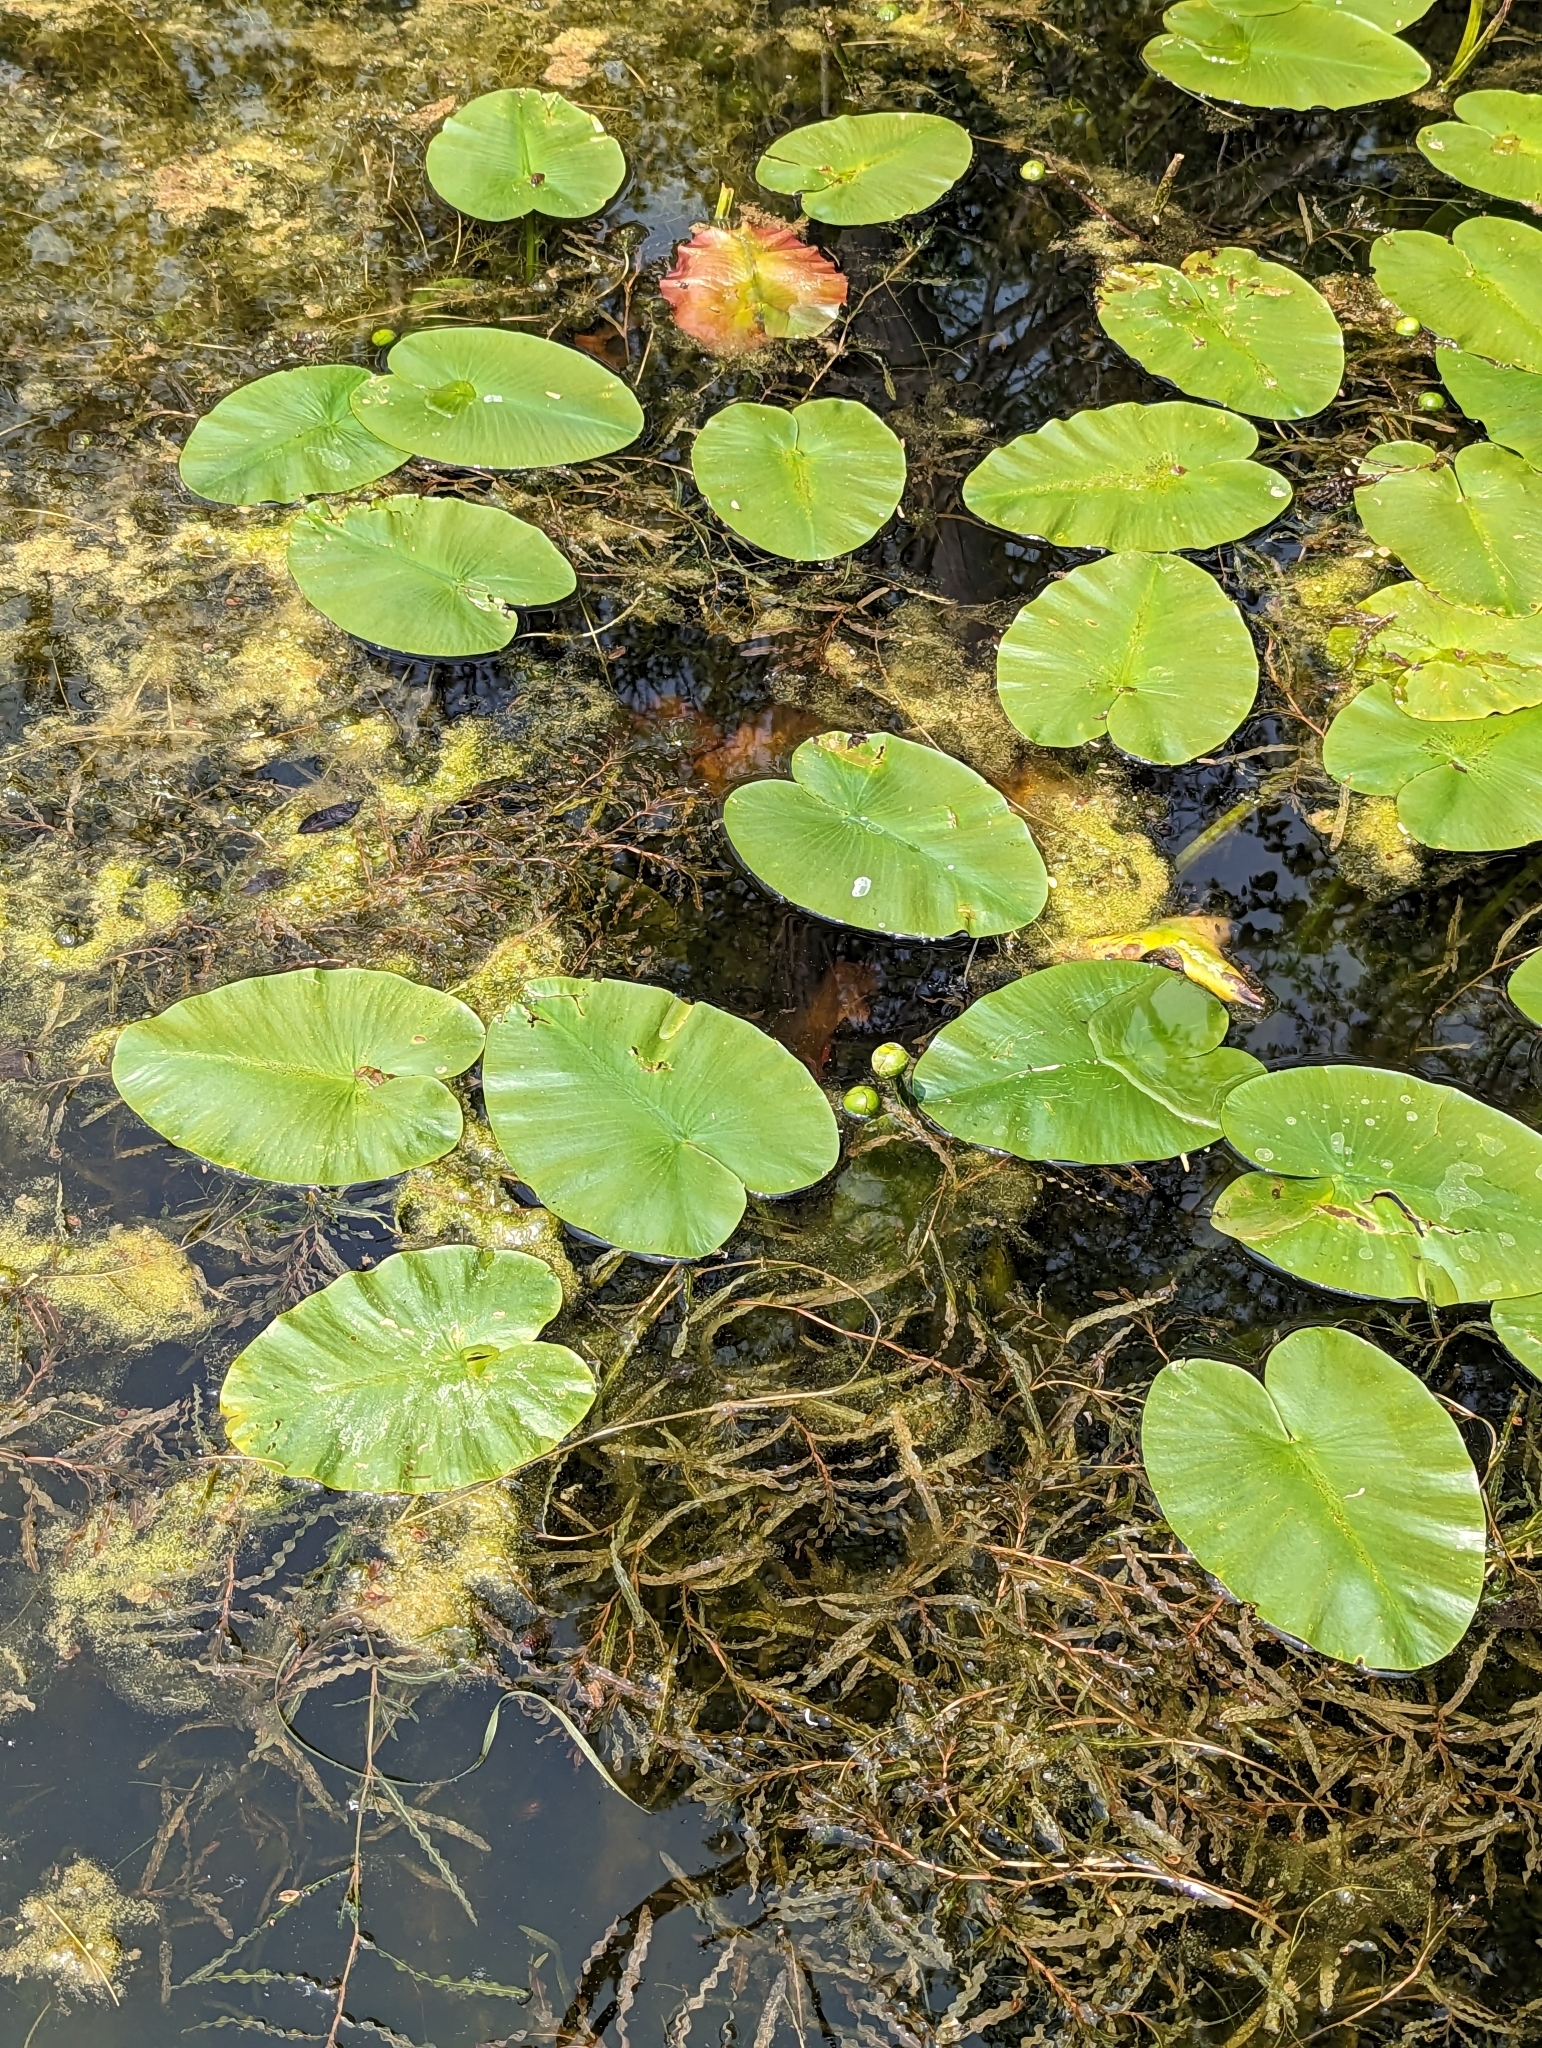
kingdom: Plantae
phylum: Tracheophyta
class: Magnoliopsida
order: Nymphaeales
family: Nymphaeaceae
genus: Nuphar
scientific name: Nuphar variegata
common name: Beaver-root
